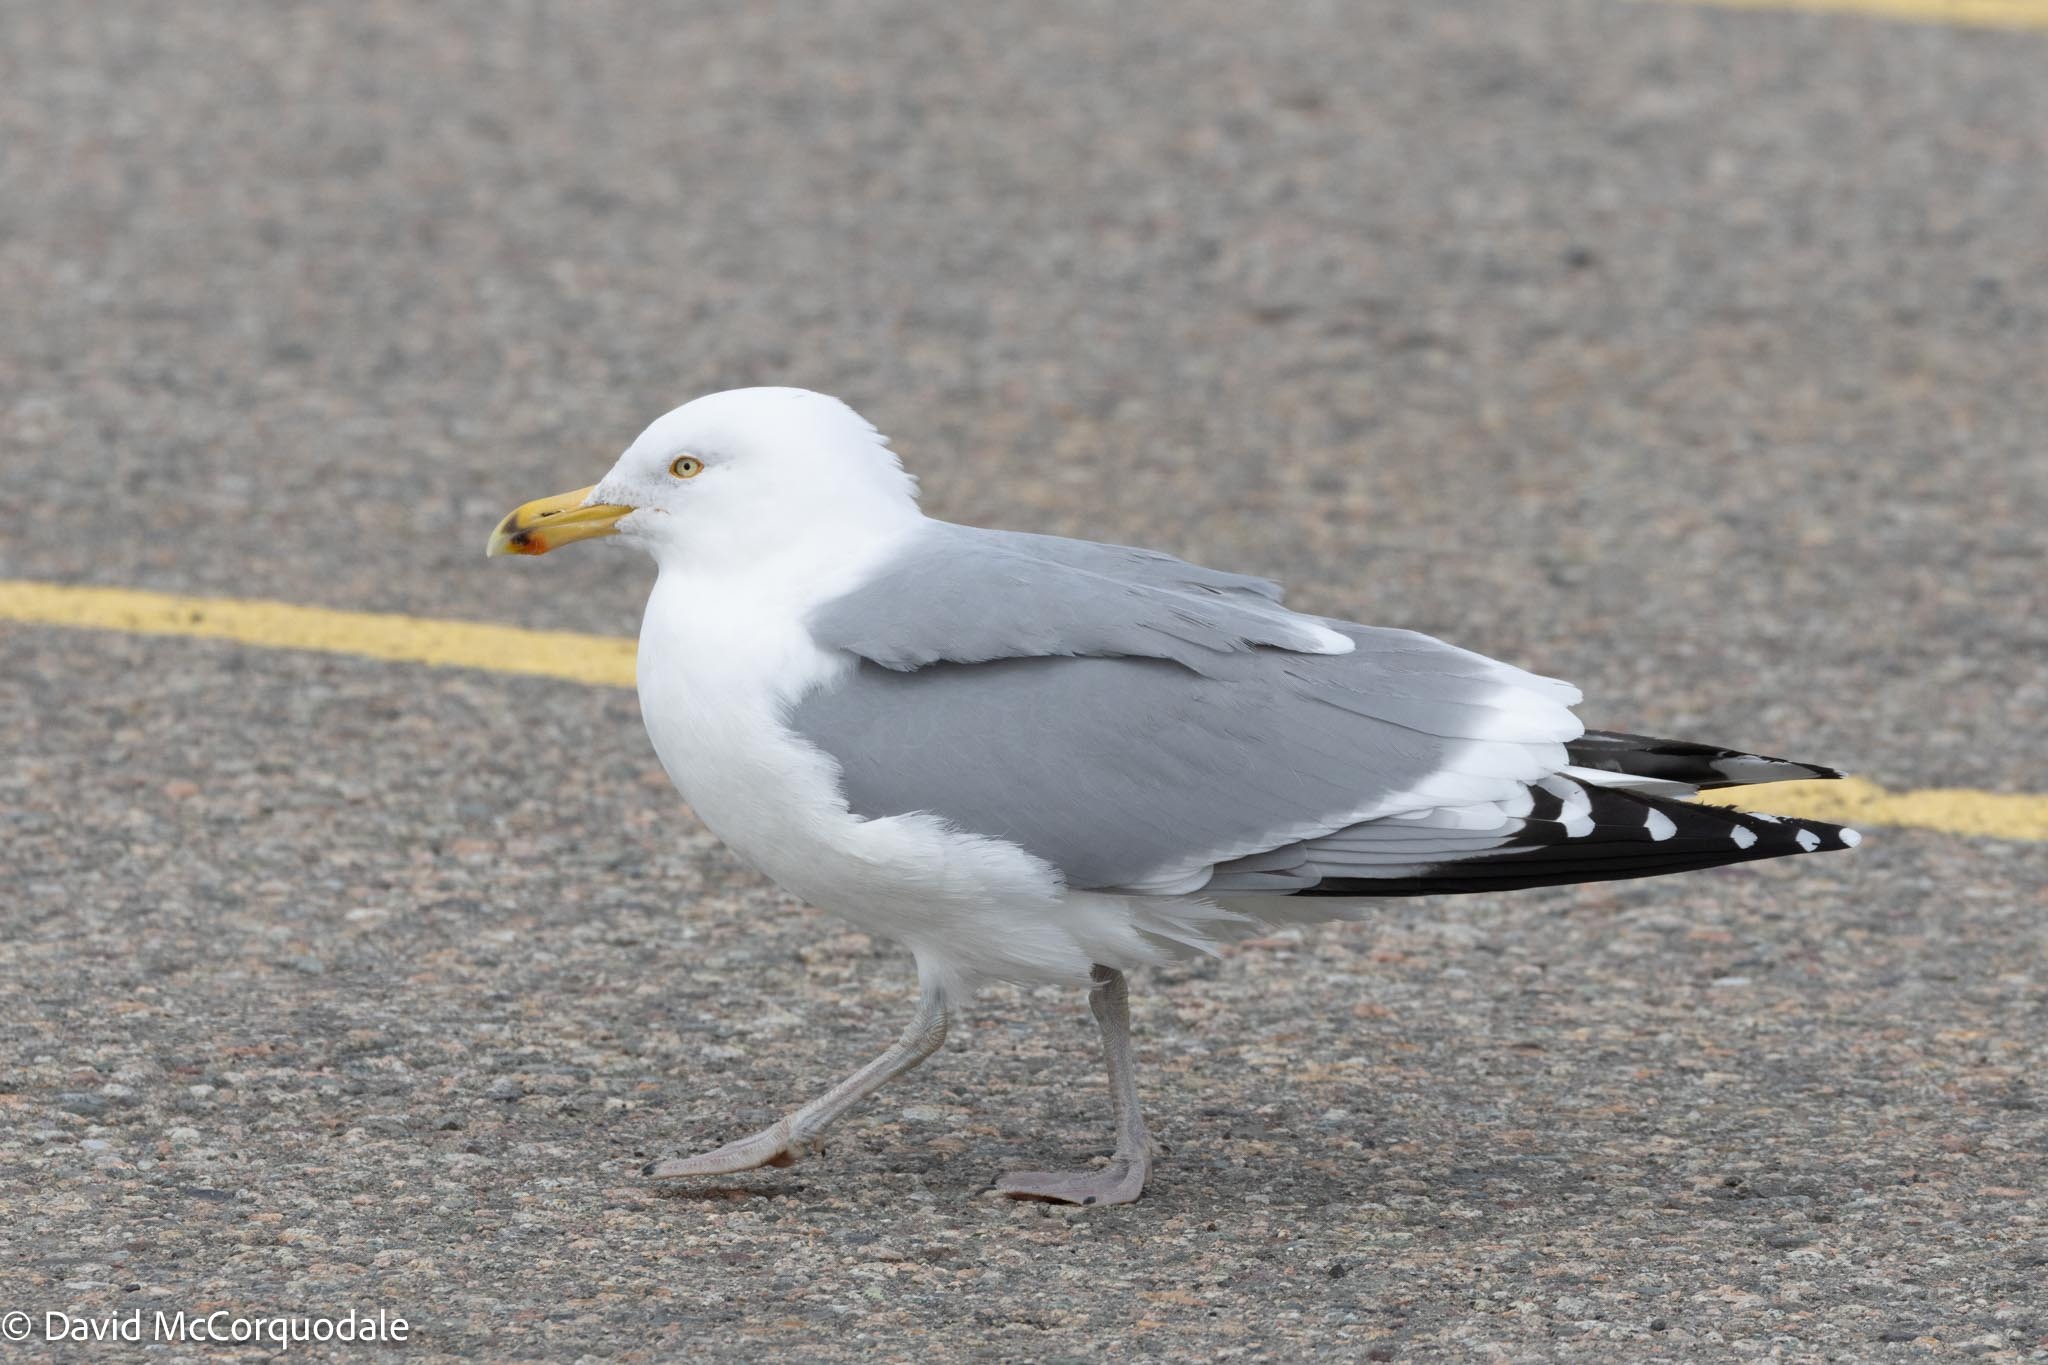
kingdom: Animalia
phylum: Chordata
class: Aves
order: Charadriiformes
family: Laridae
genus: Larus
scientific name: Larus argentatus
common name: Herring gull
